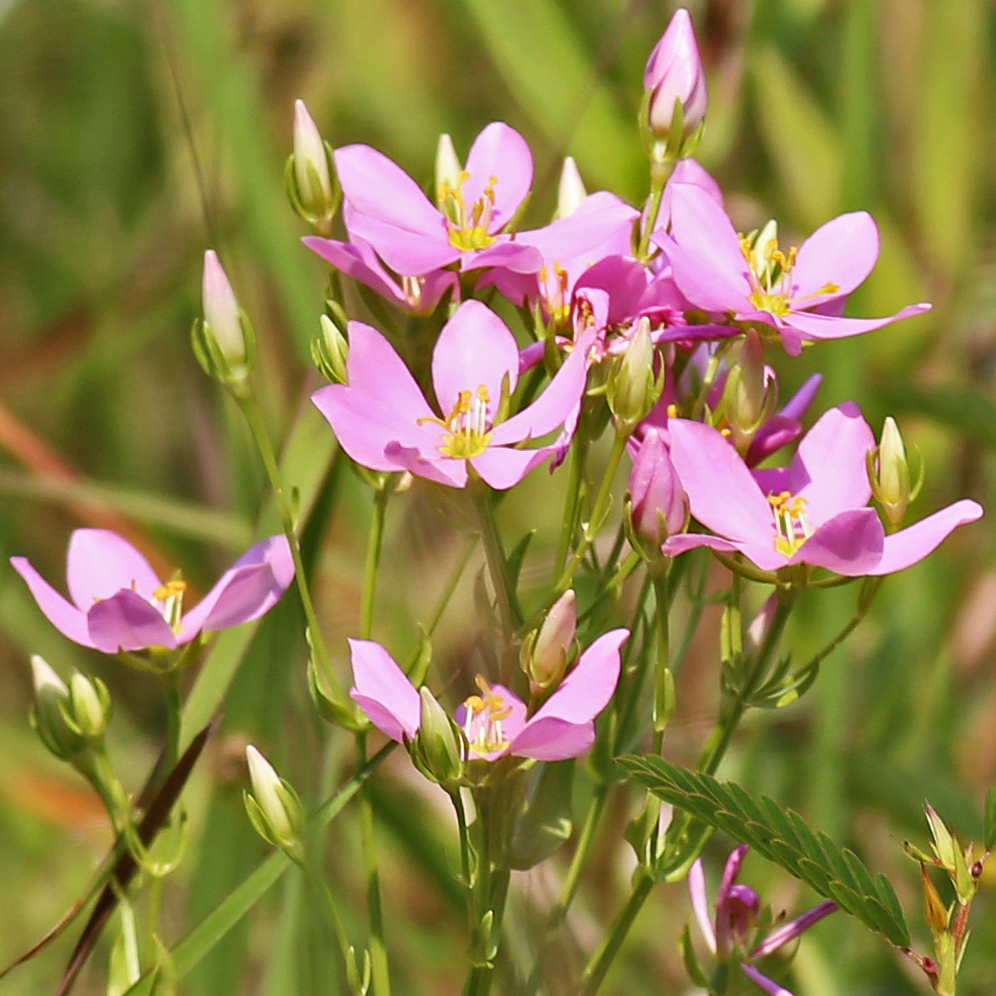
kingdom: Plantae
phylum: Tracheophyta
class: Magnoliopsida
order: Gentianales
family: Gentianaceae
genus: Sabatia
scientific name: Sabatia angularis
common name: Rose-pink
